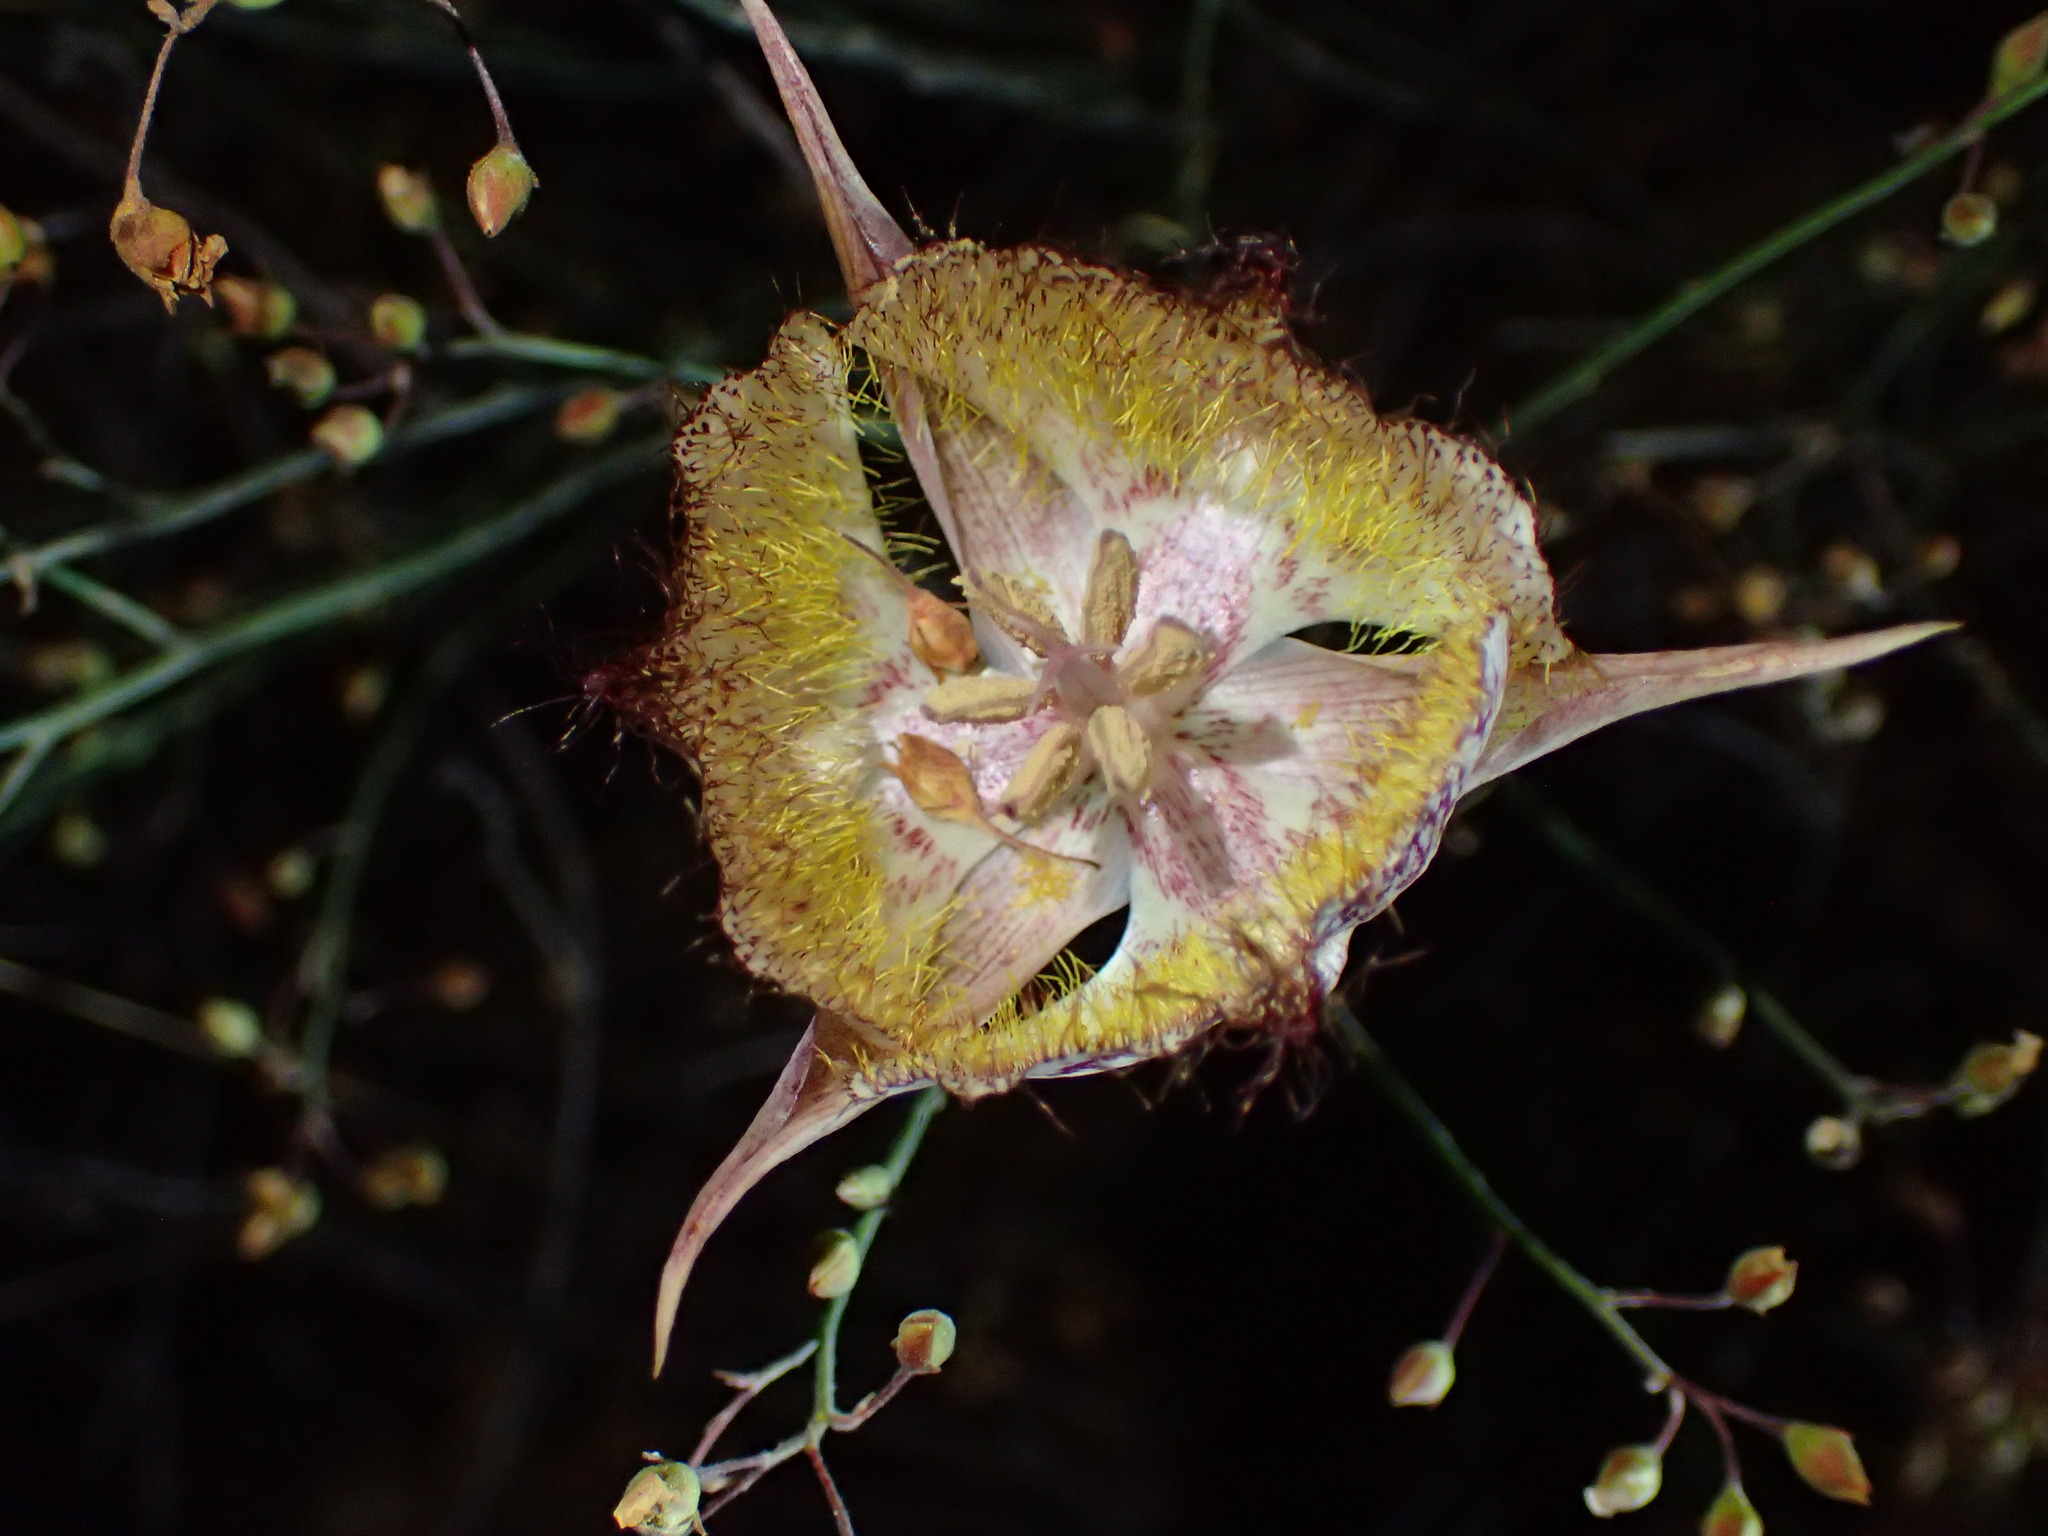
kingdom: Plantae
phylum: Tracheophyta
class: Liliopsida
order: Liliales
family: Liliaceae
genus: Calochortus
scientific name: Calochortus fimbriatus
